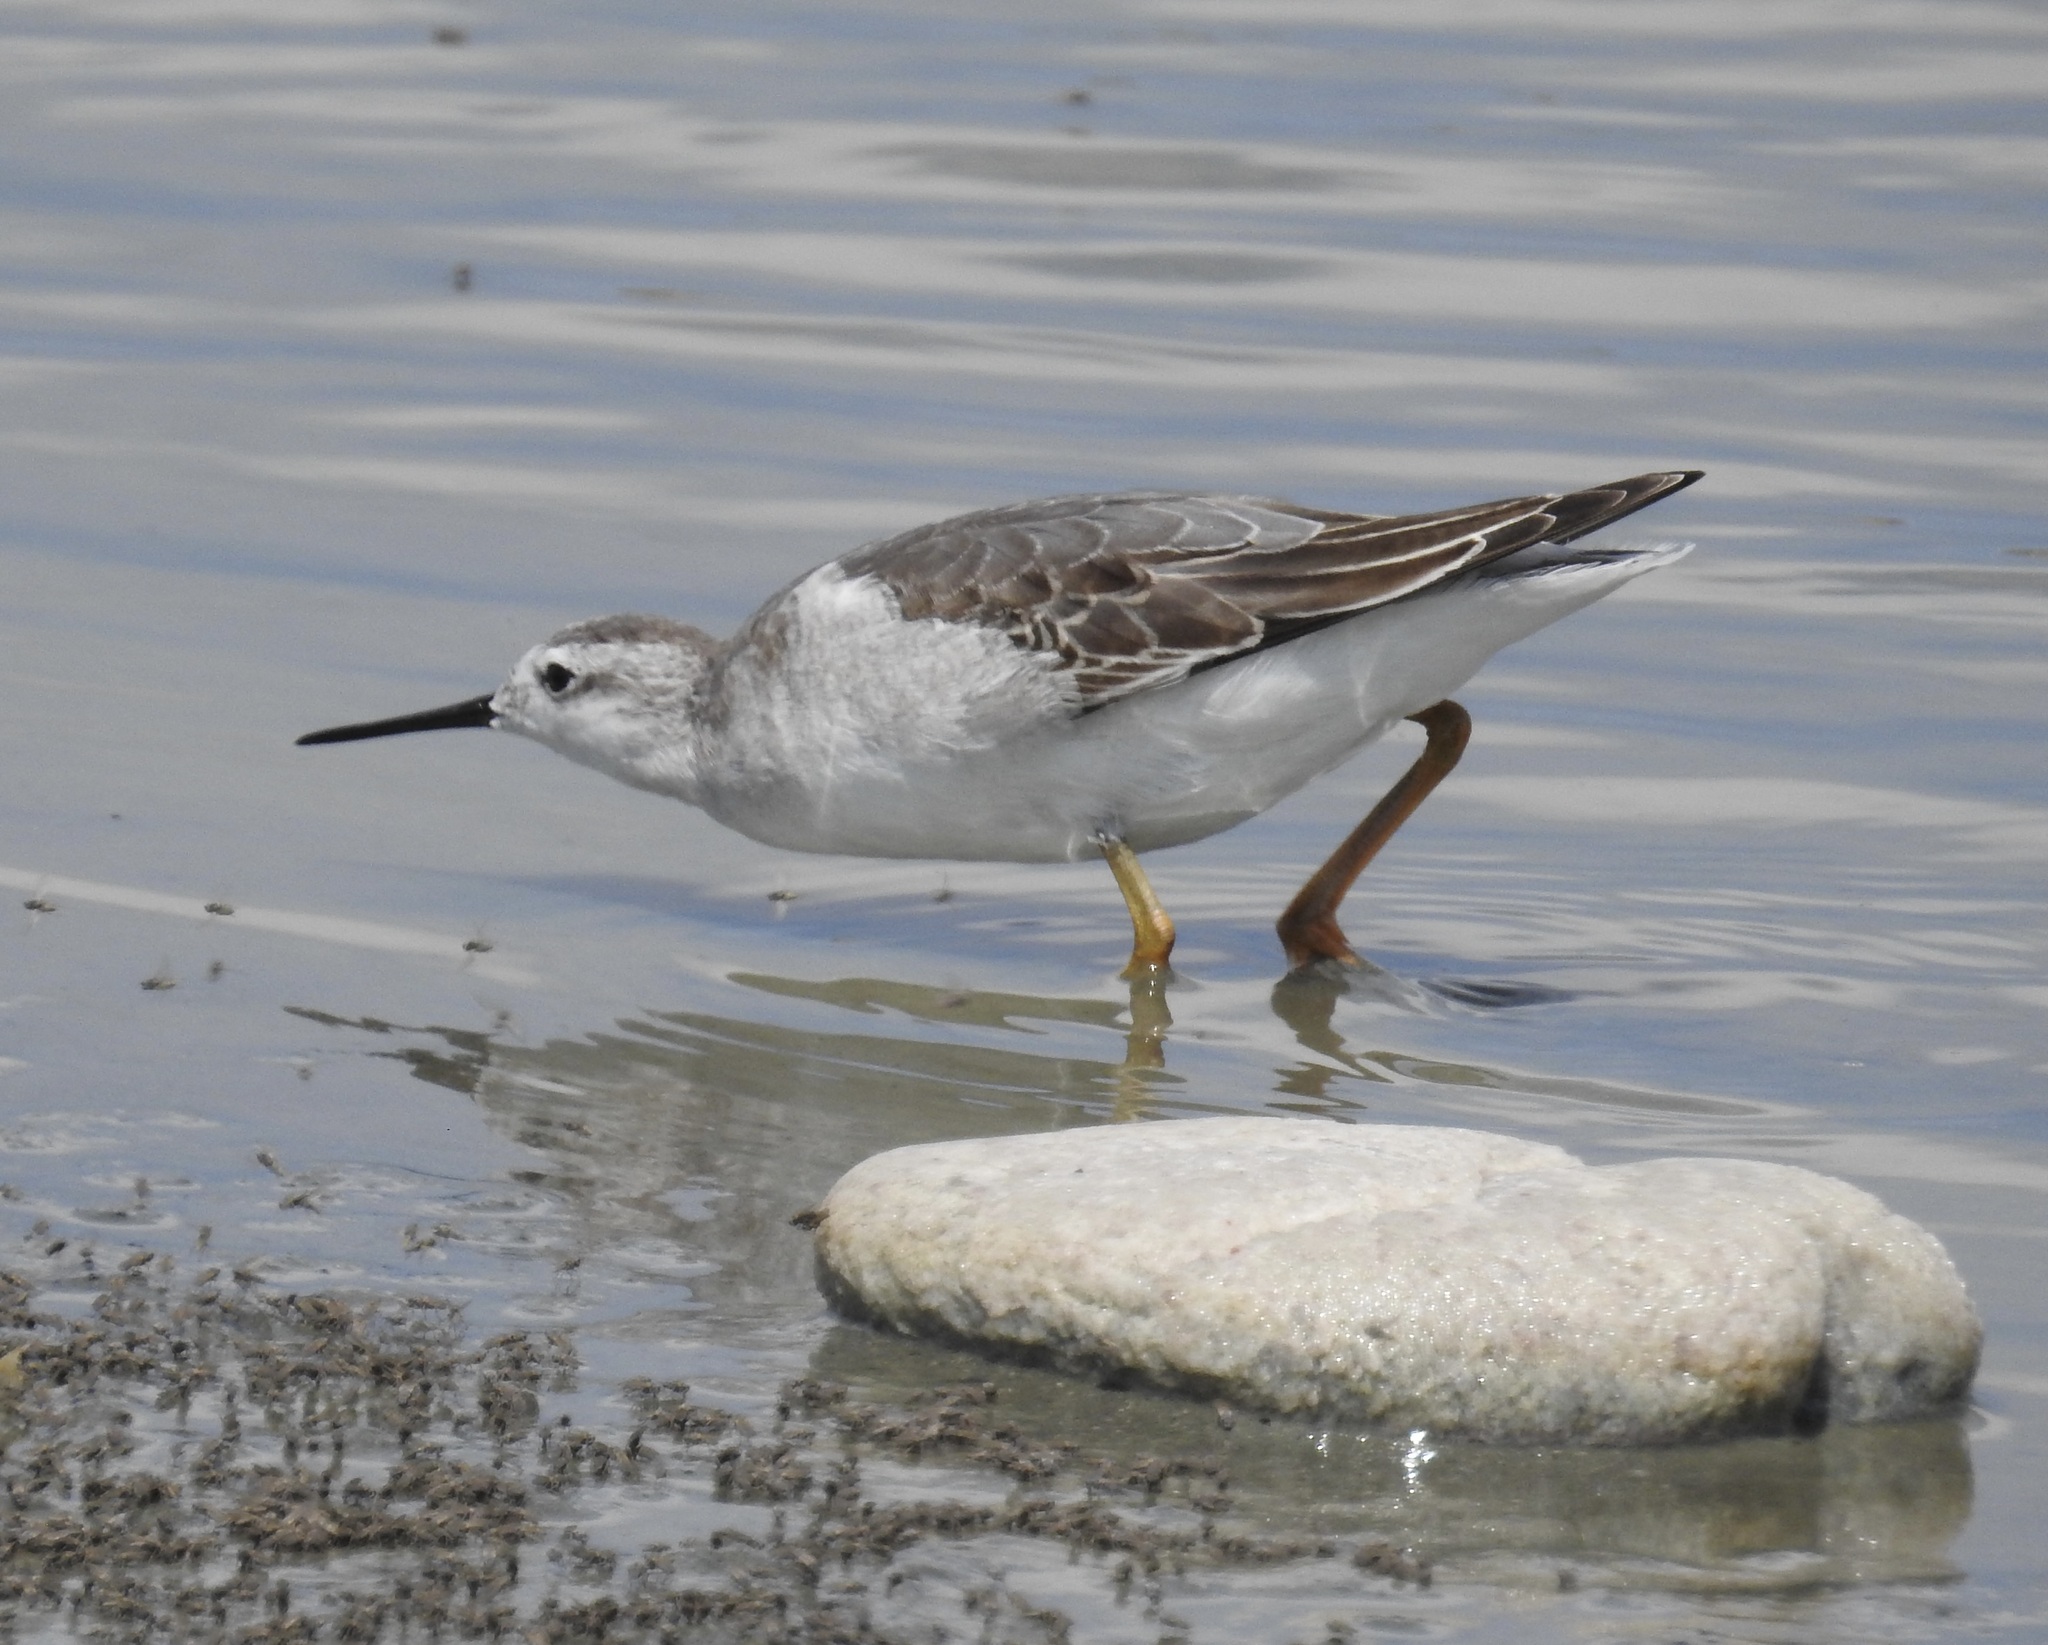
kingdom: Animalia
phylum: Chordata
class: Aves
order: Charadriiformes
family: Scolopacidae
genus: Phalaropus
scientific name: Phalaropus tricolor
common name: Wilson's phalarope
